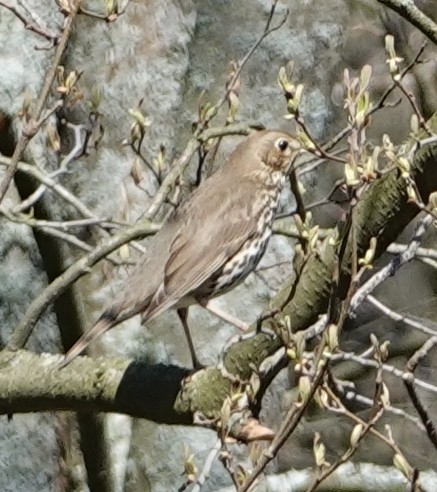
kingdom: Animalia
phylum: Chordata
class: Aves
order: Passeriformes
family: Turdidae
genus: Turdus
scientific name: Turdus philomelos
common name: Song thrush
